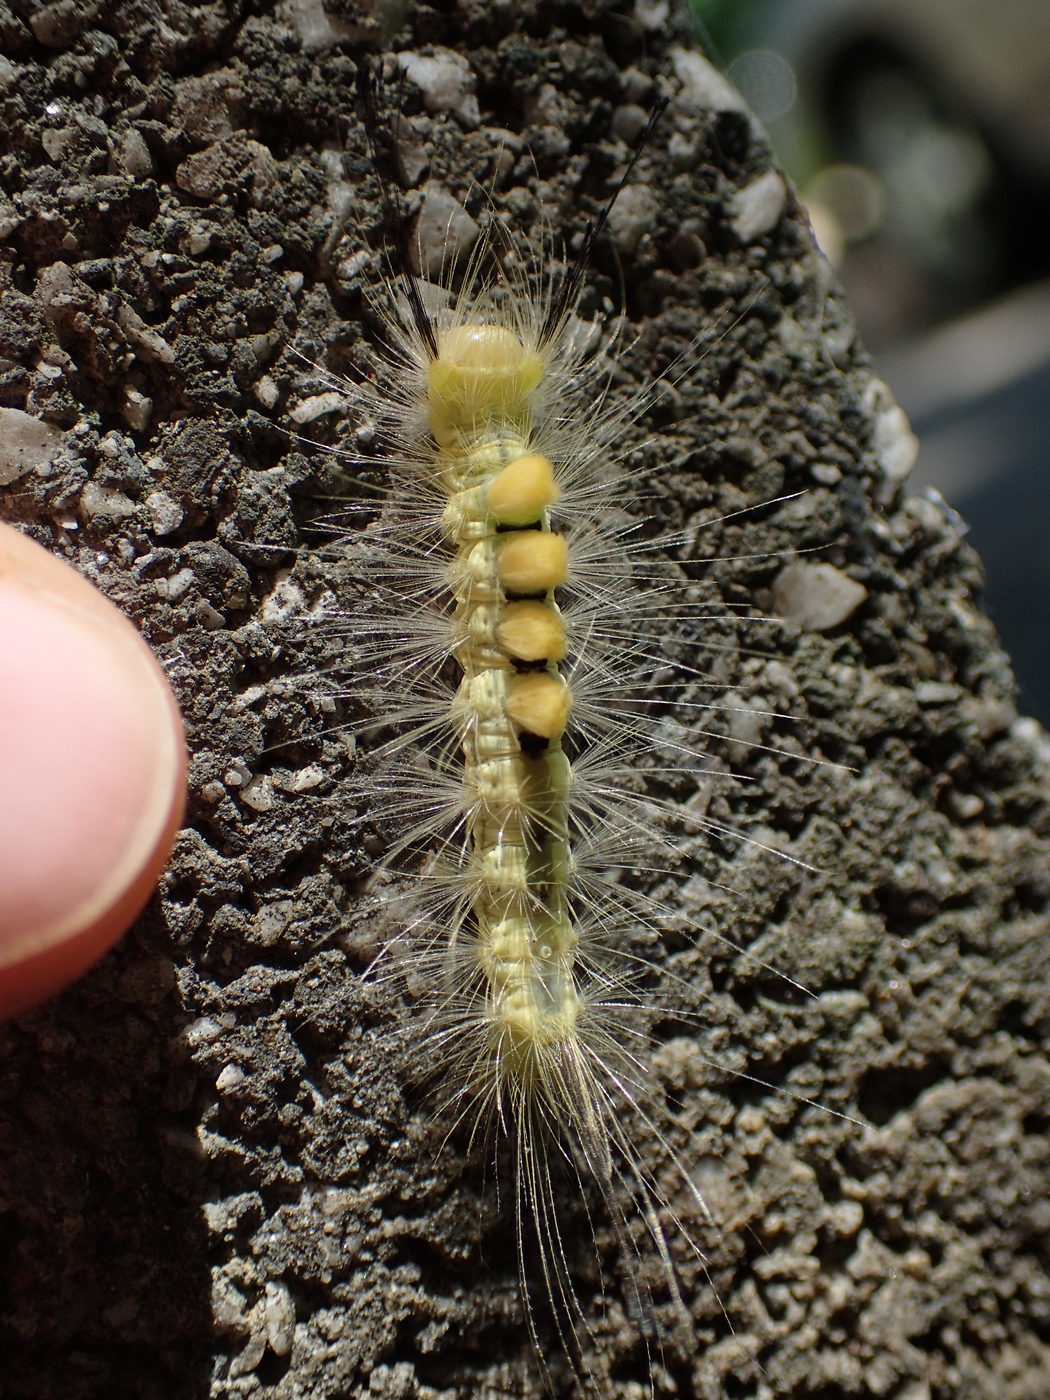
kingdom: Animalia
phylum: Arthropoda
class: Insecta
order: Lepidoptera
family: Erebidae
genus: Orgyia
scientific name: Orgyia definita
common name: Definite tussock moth
